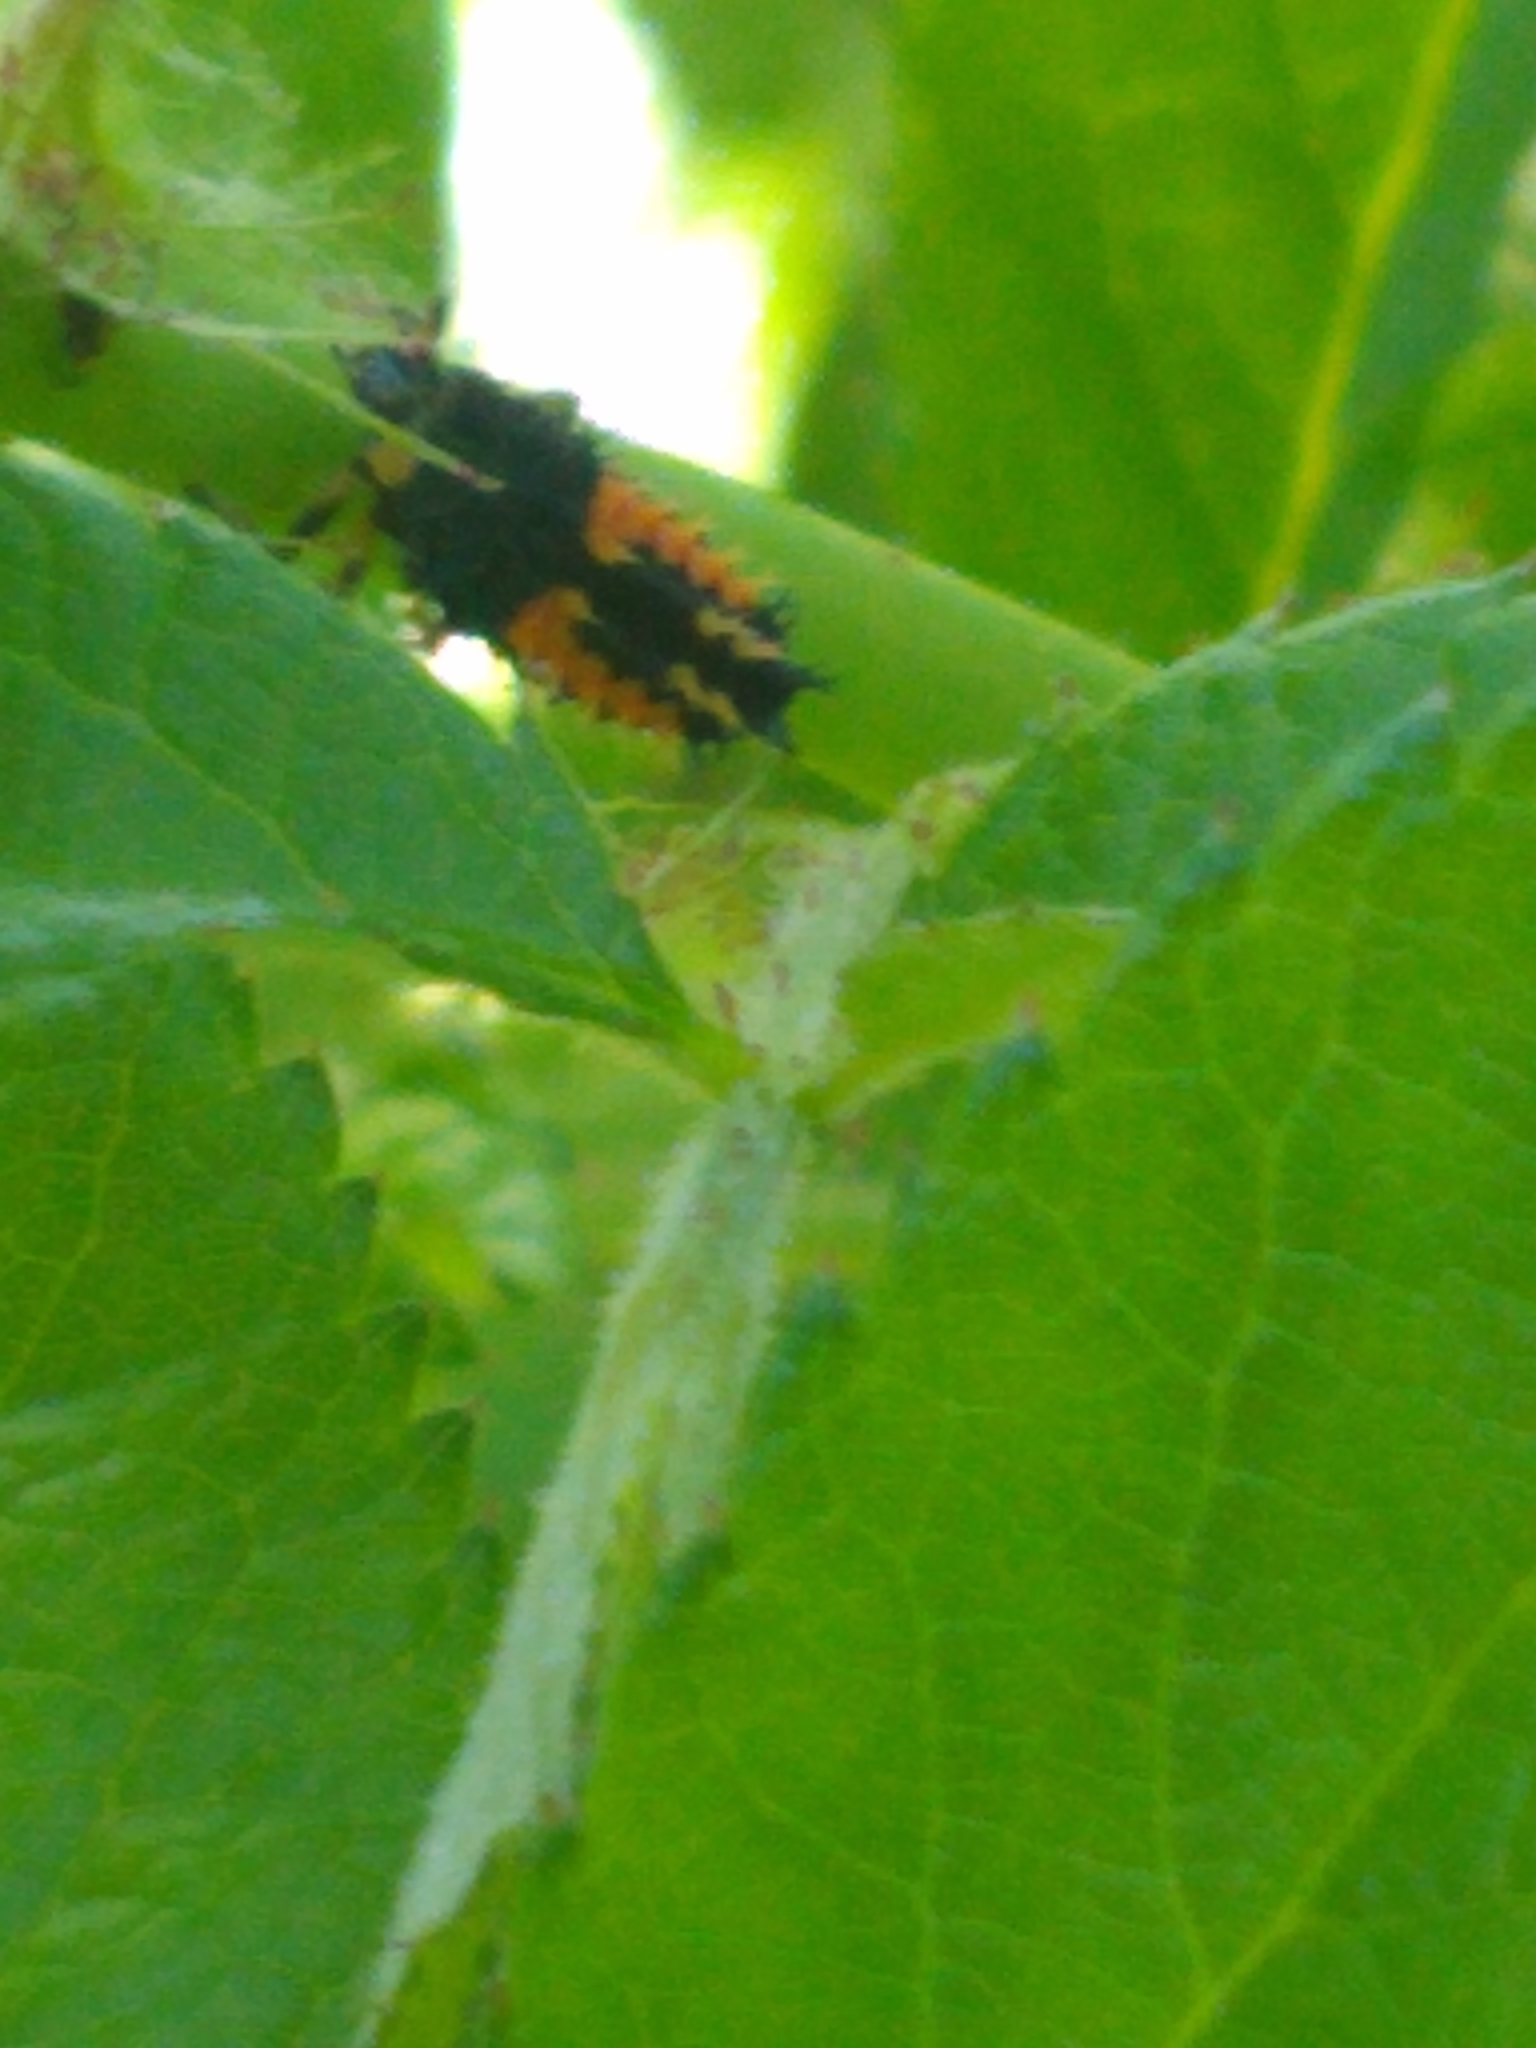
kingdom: Animalia
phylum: Arthropoda
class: Insecta
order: Coleoptera
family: Coccinellidae
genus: Harmonia
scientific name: Harmonia axyridis
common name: Harlequin ladybird
